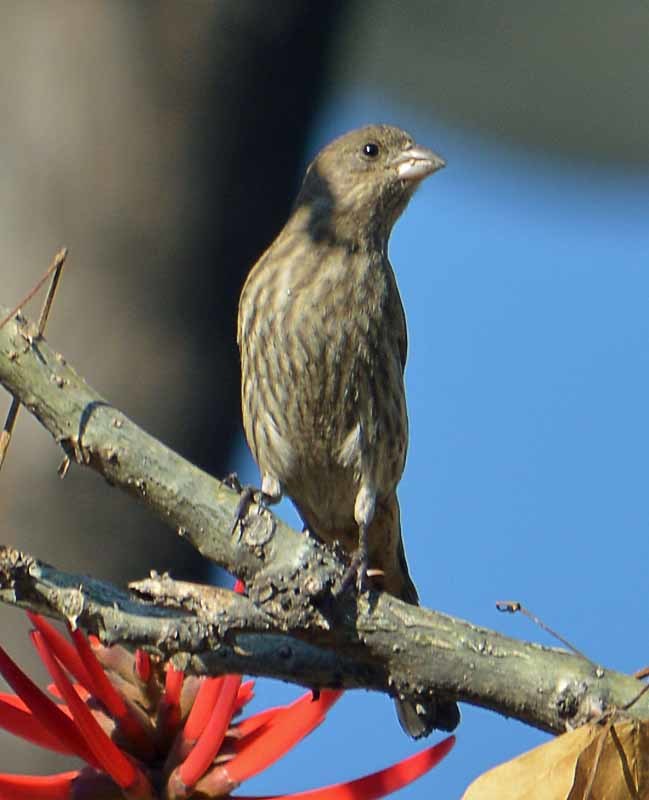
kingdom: Animalia
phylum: Chordata
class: Aves
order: Passeriformes
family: Fringillidae
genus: Haemorhous
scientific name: Haemorhous mexicanus
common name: House finch
